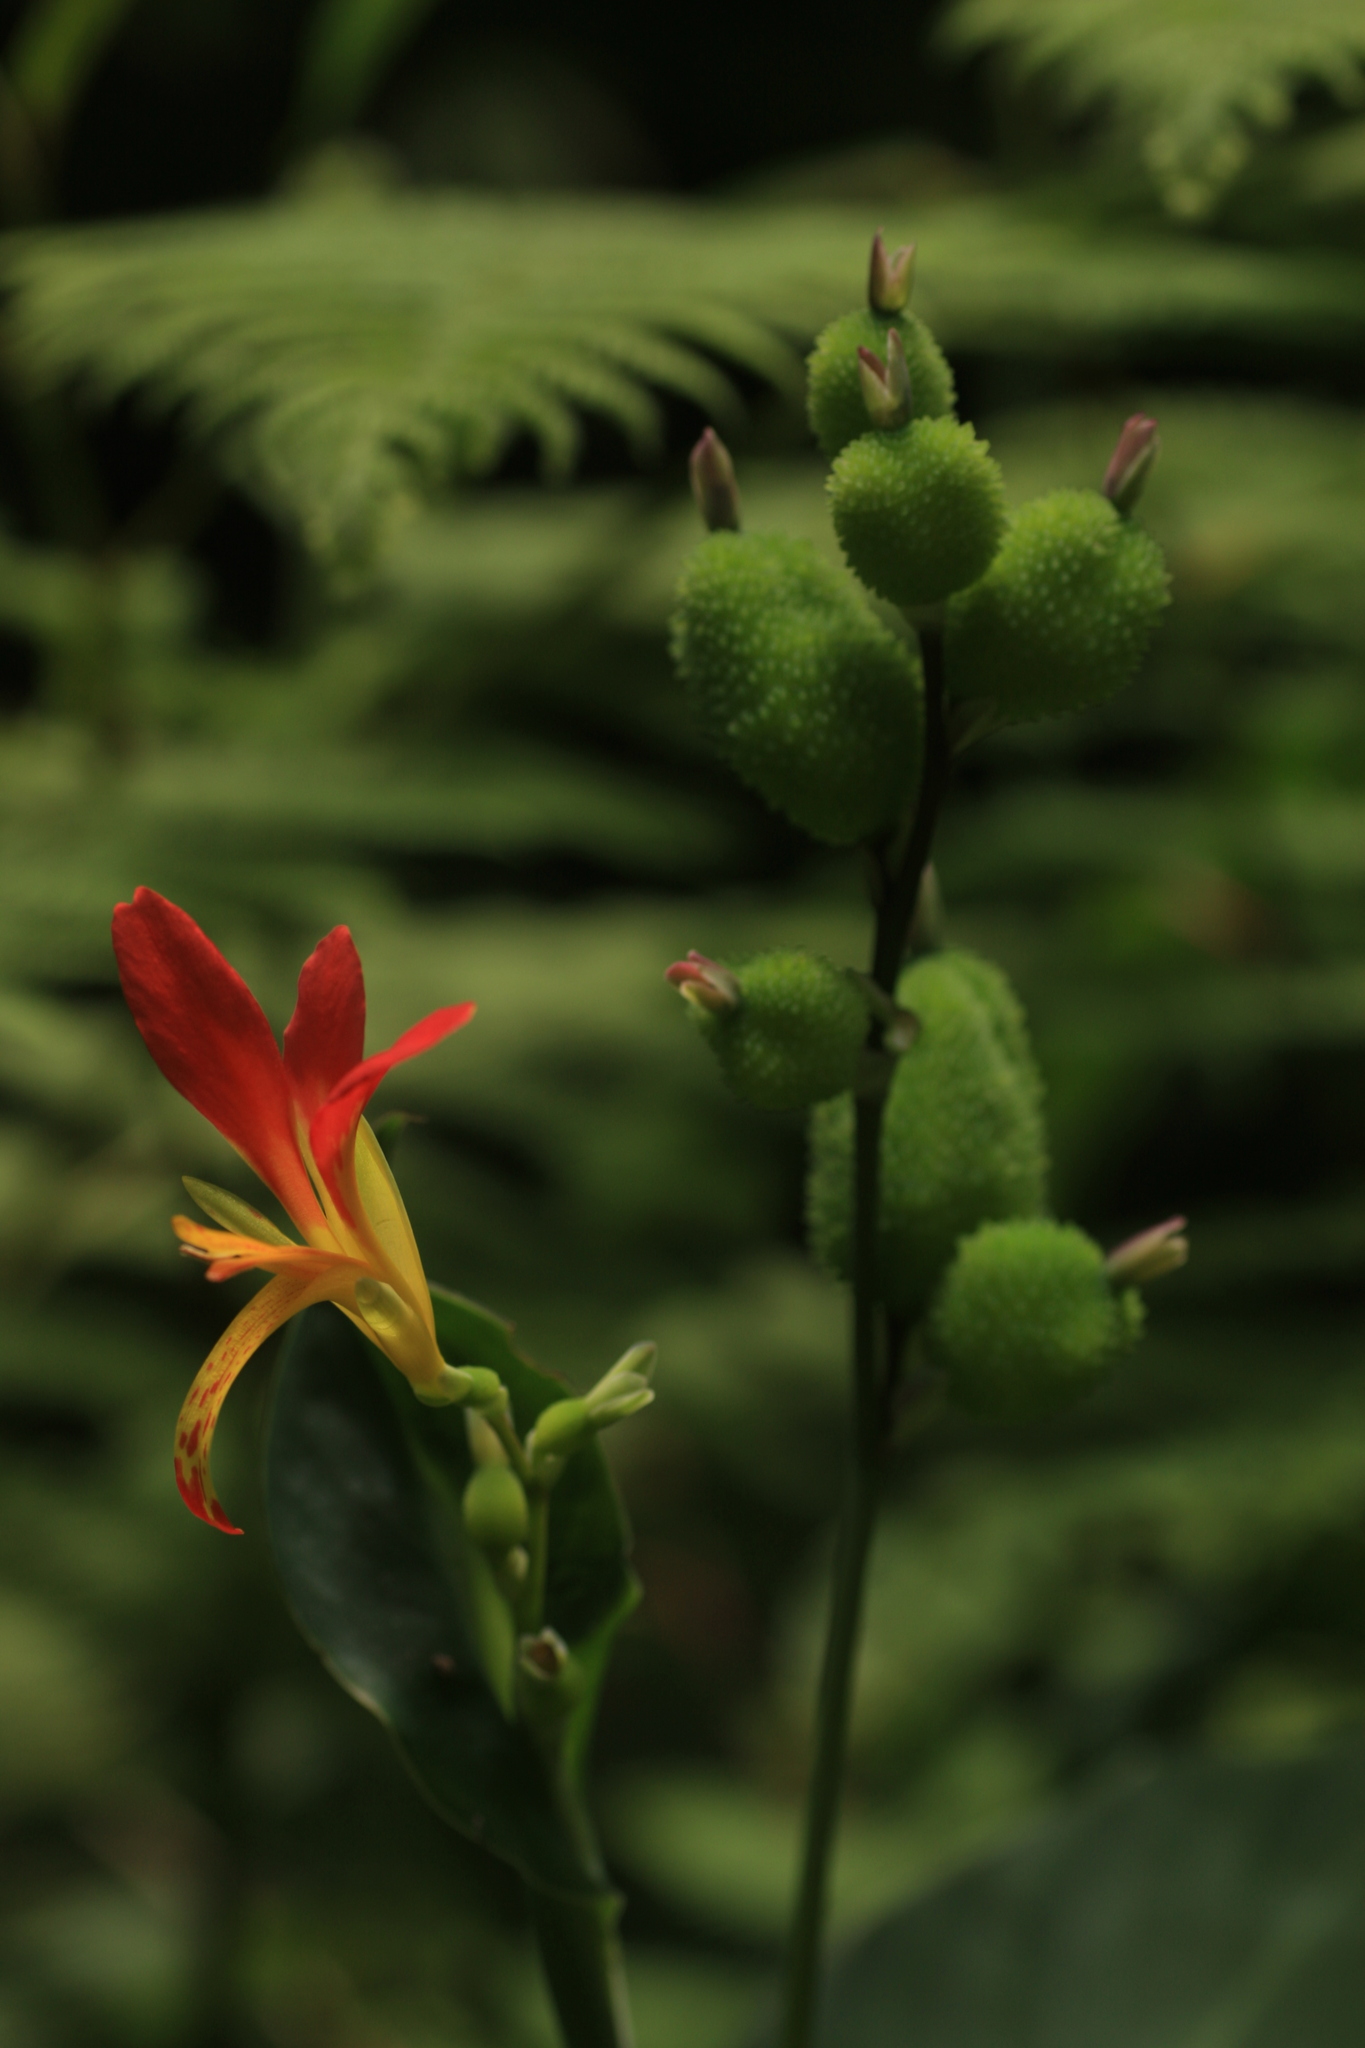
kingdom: Plantae
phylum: Tracheophyta
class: Liliopsida
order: Zingiberales
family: Cannaceae
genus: Canna
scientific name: Canna indica
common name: Indian shot
